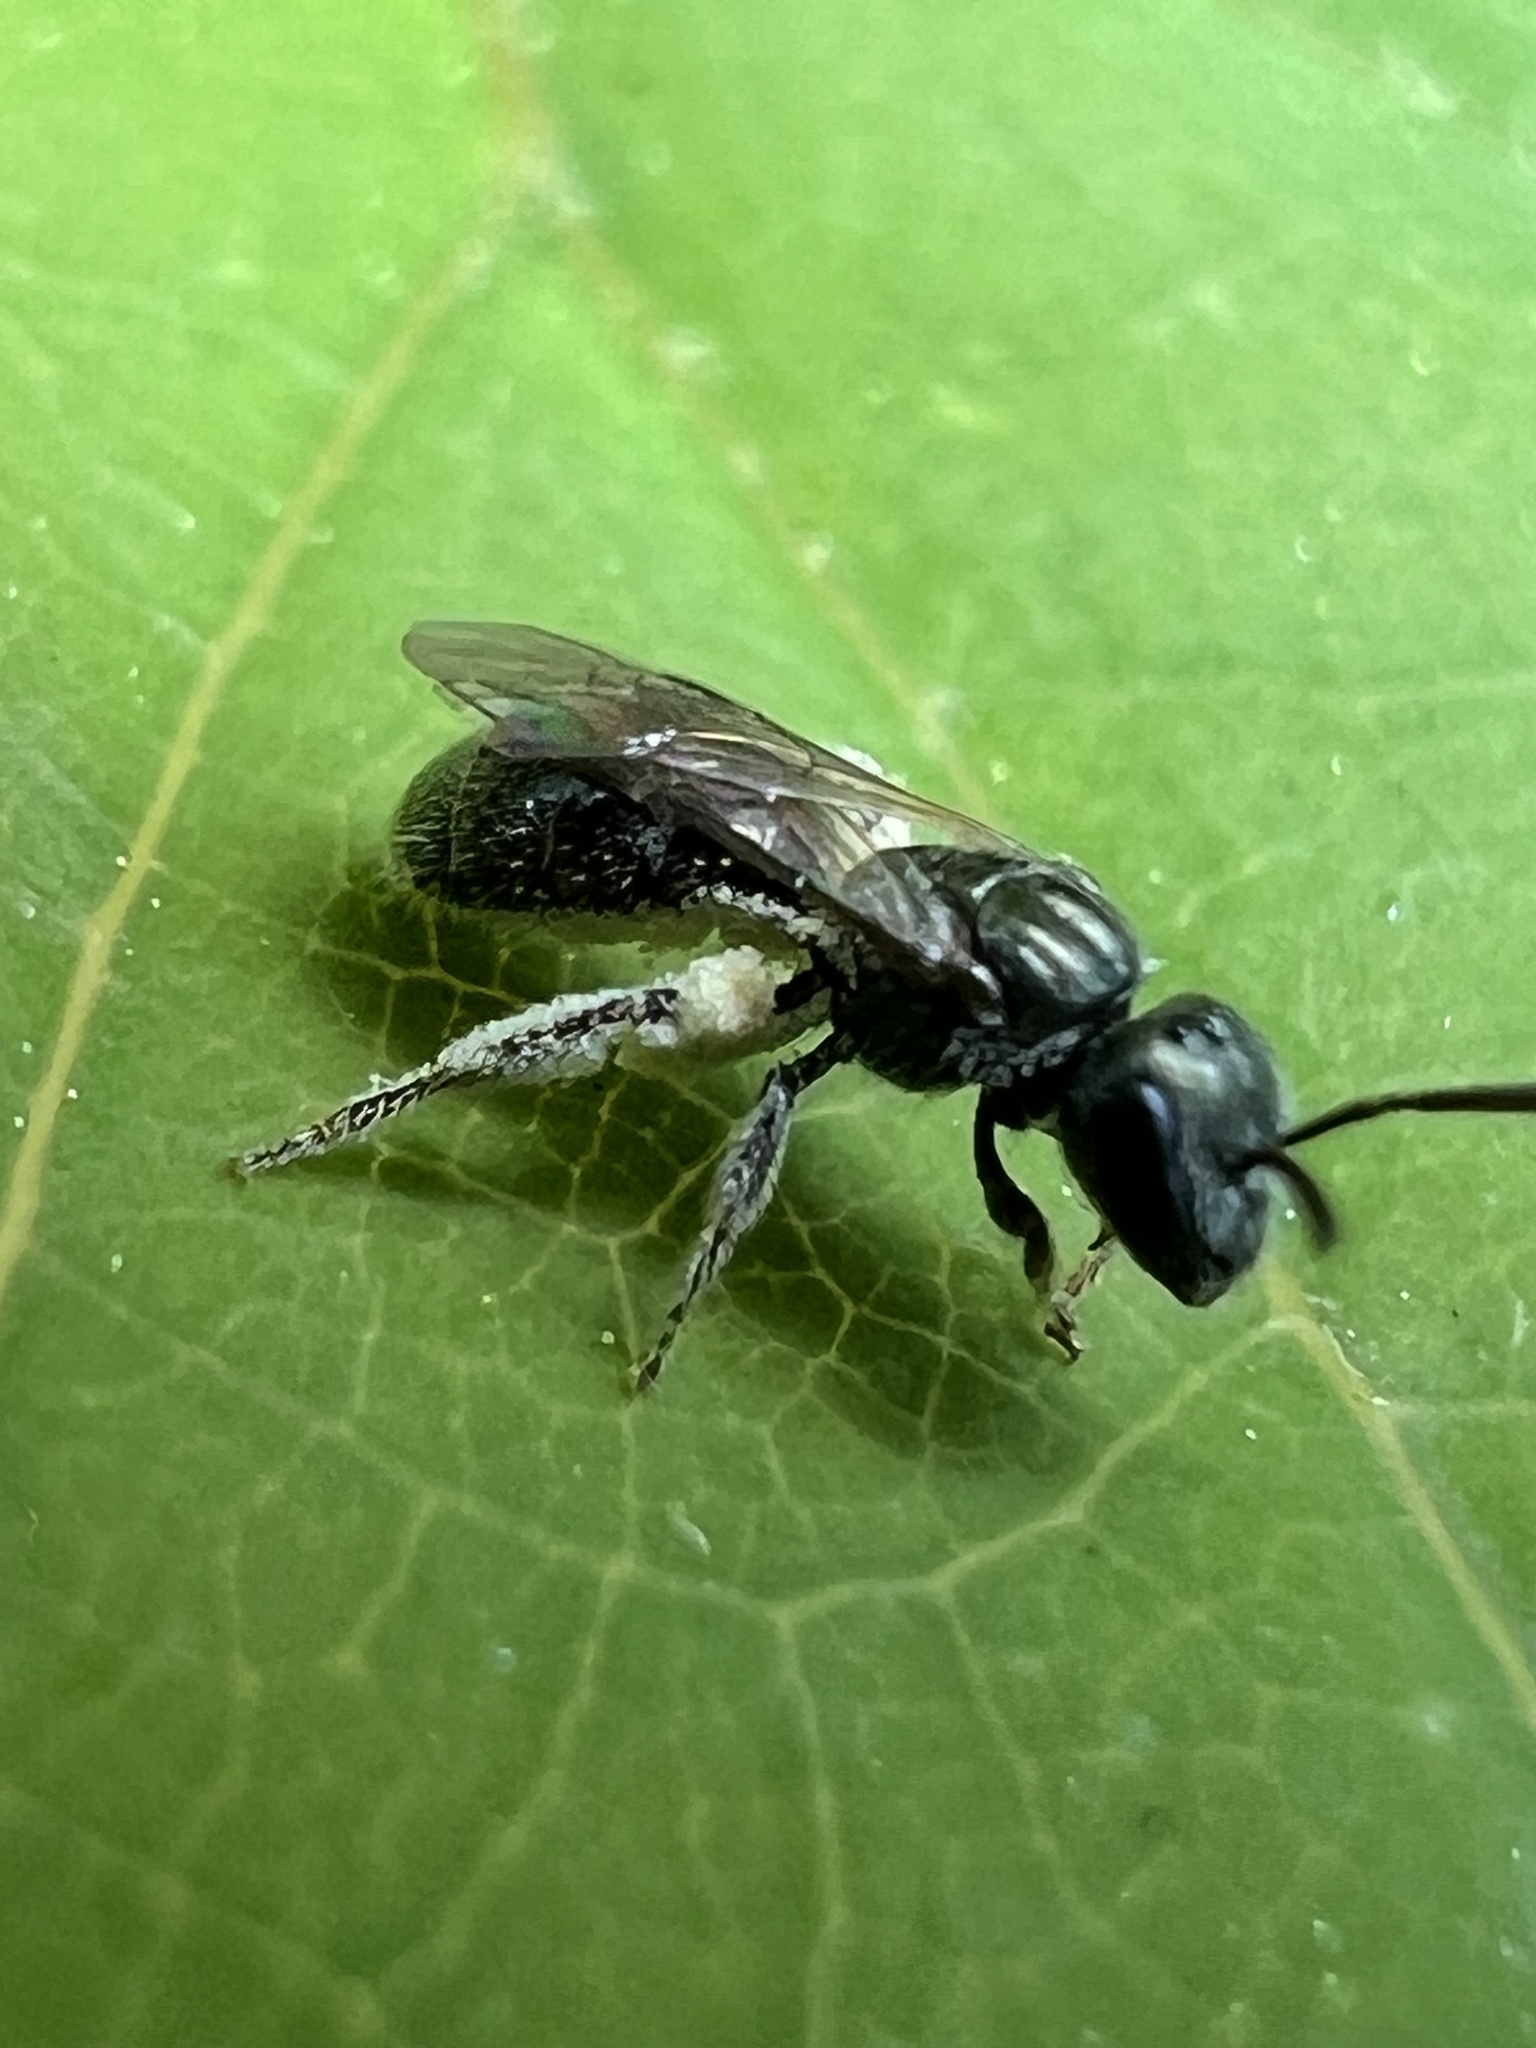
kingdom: Animalia
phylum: Arthropoda
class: Insecta
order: Hymenoptera
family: Halictidae
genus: Lasioglossum
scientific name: Lasioglossum imitatum
